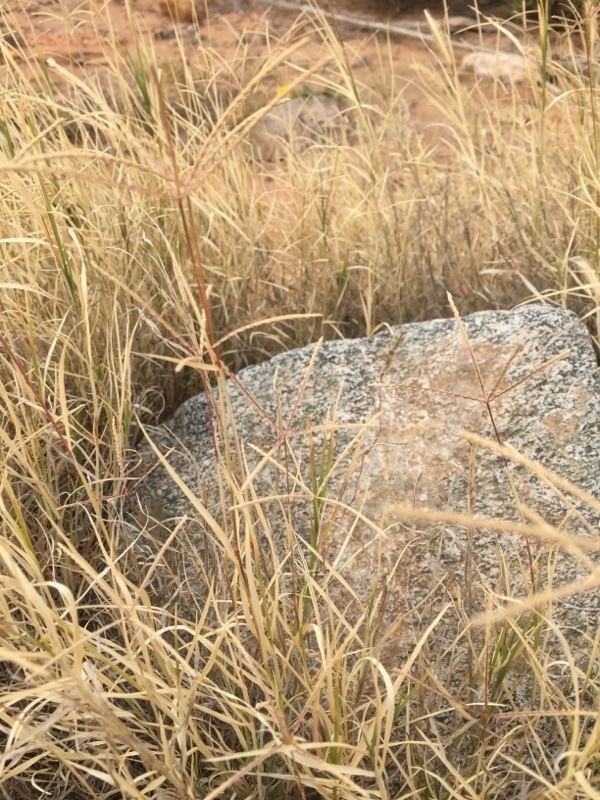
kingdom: Plantae
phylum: Tracheophyta
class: Liliopsida
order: Poales
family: Poaceae
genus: Cynodon
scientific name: Cynodon dactylon
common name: Bermuda grass
